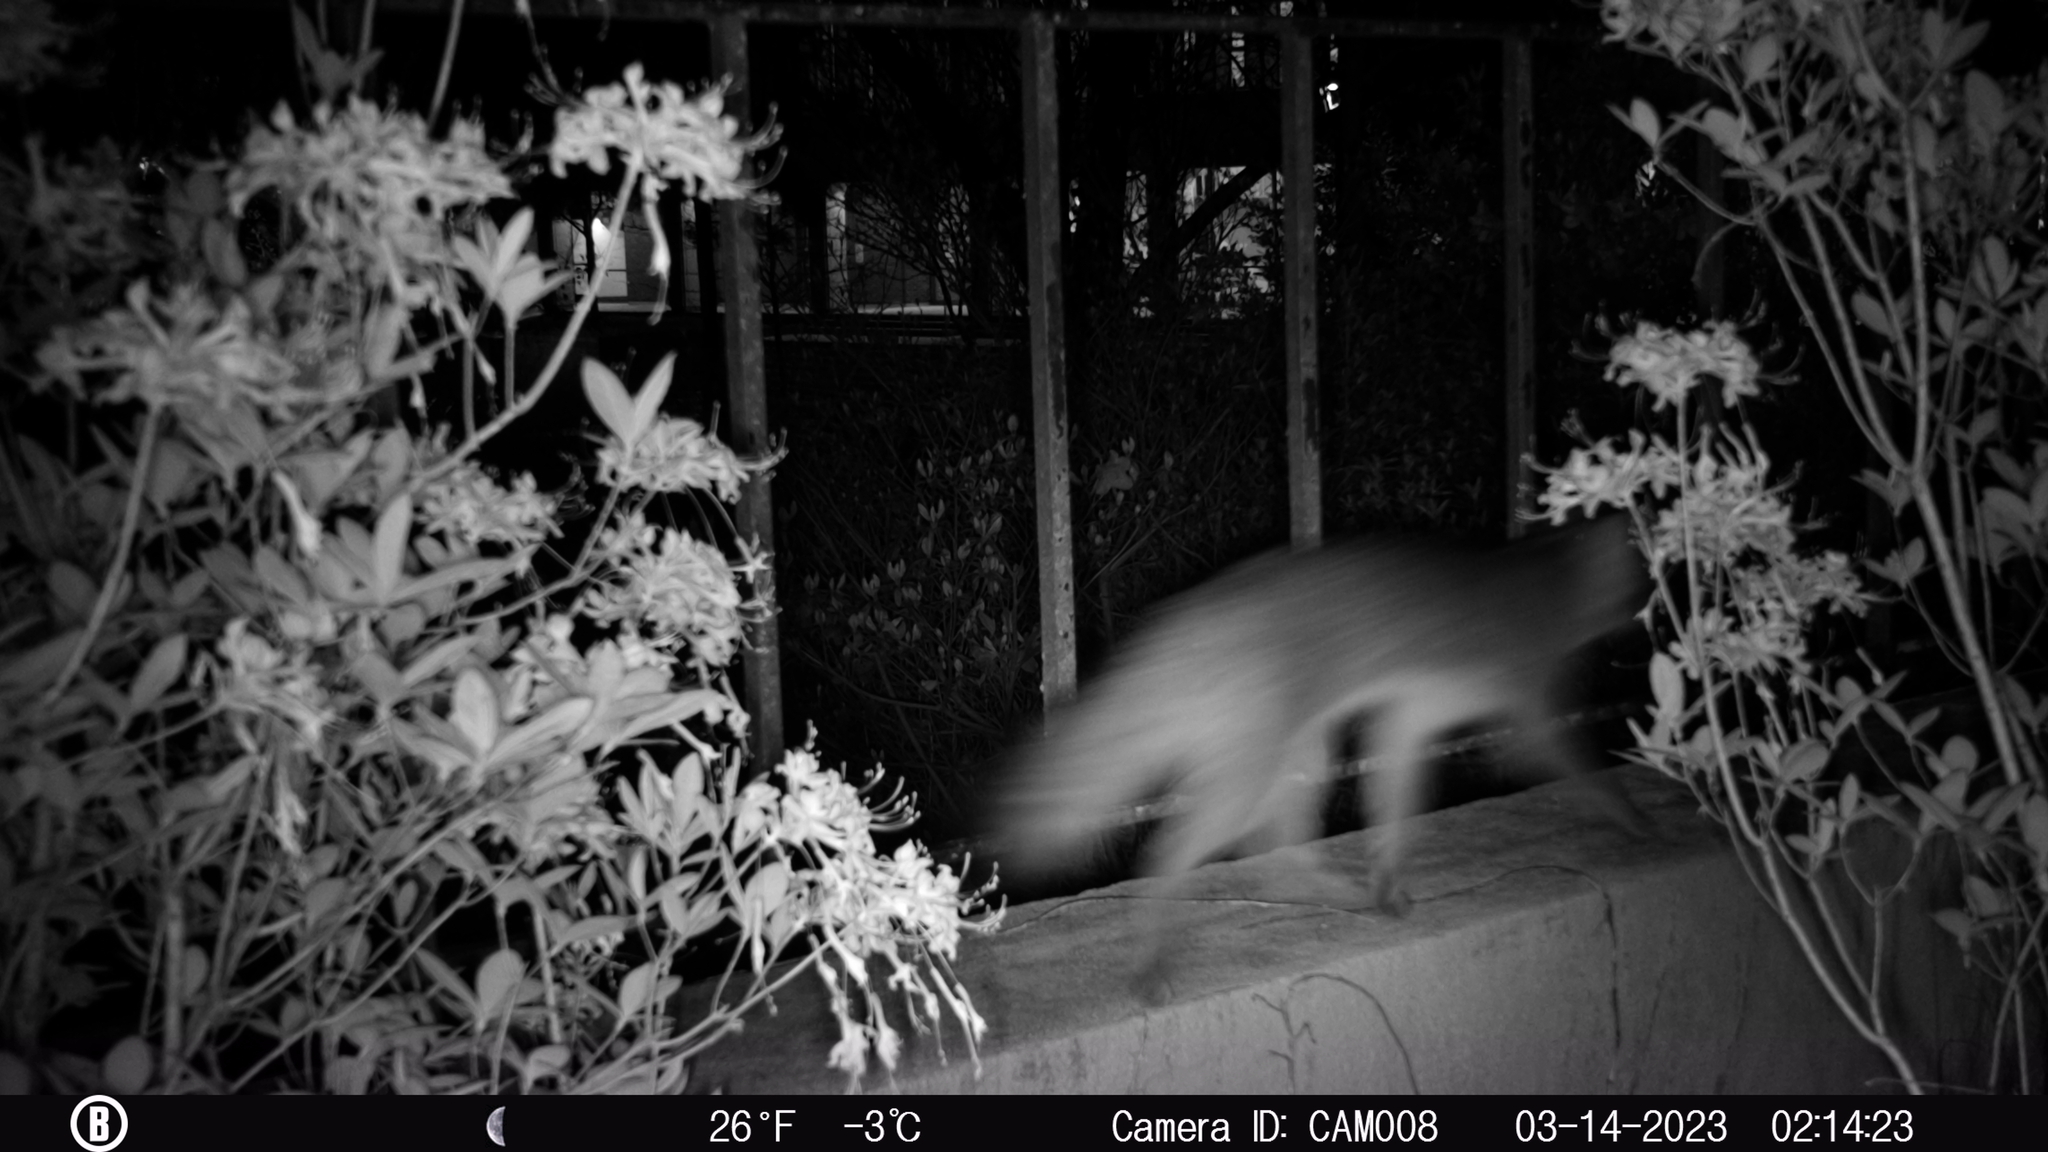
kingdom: Animalia
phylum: Chordata
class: Mammalia
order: Carnivora
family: Canidae
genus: Urocyon
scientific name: Urocyon cinereoargenteus
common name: Gray fox
